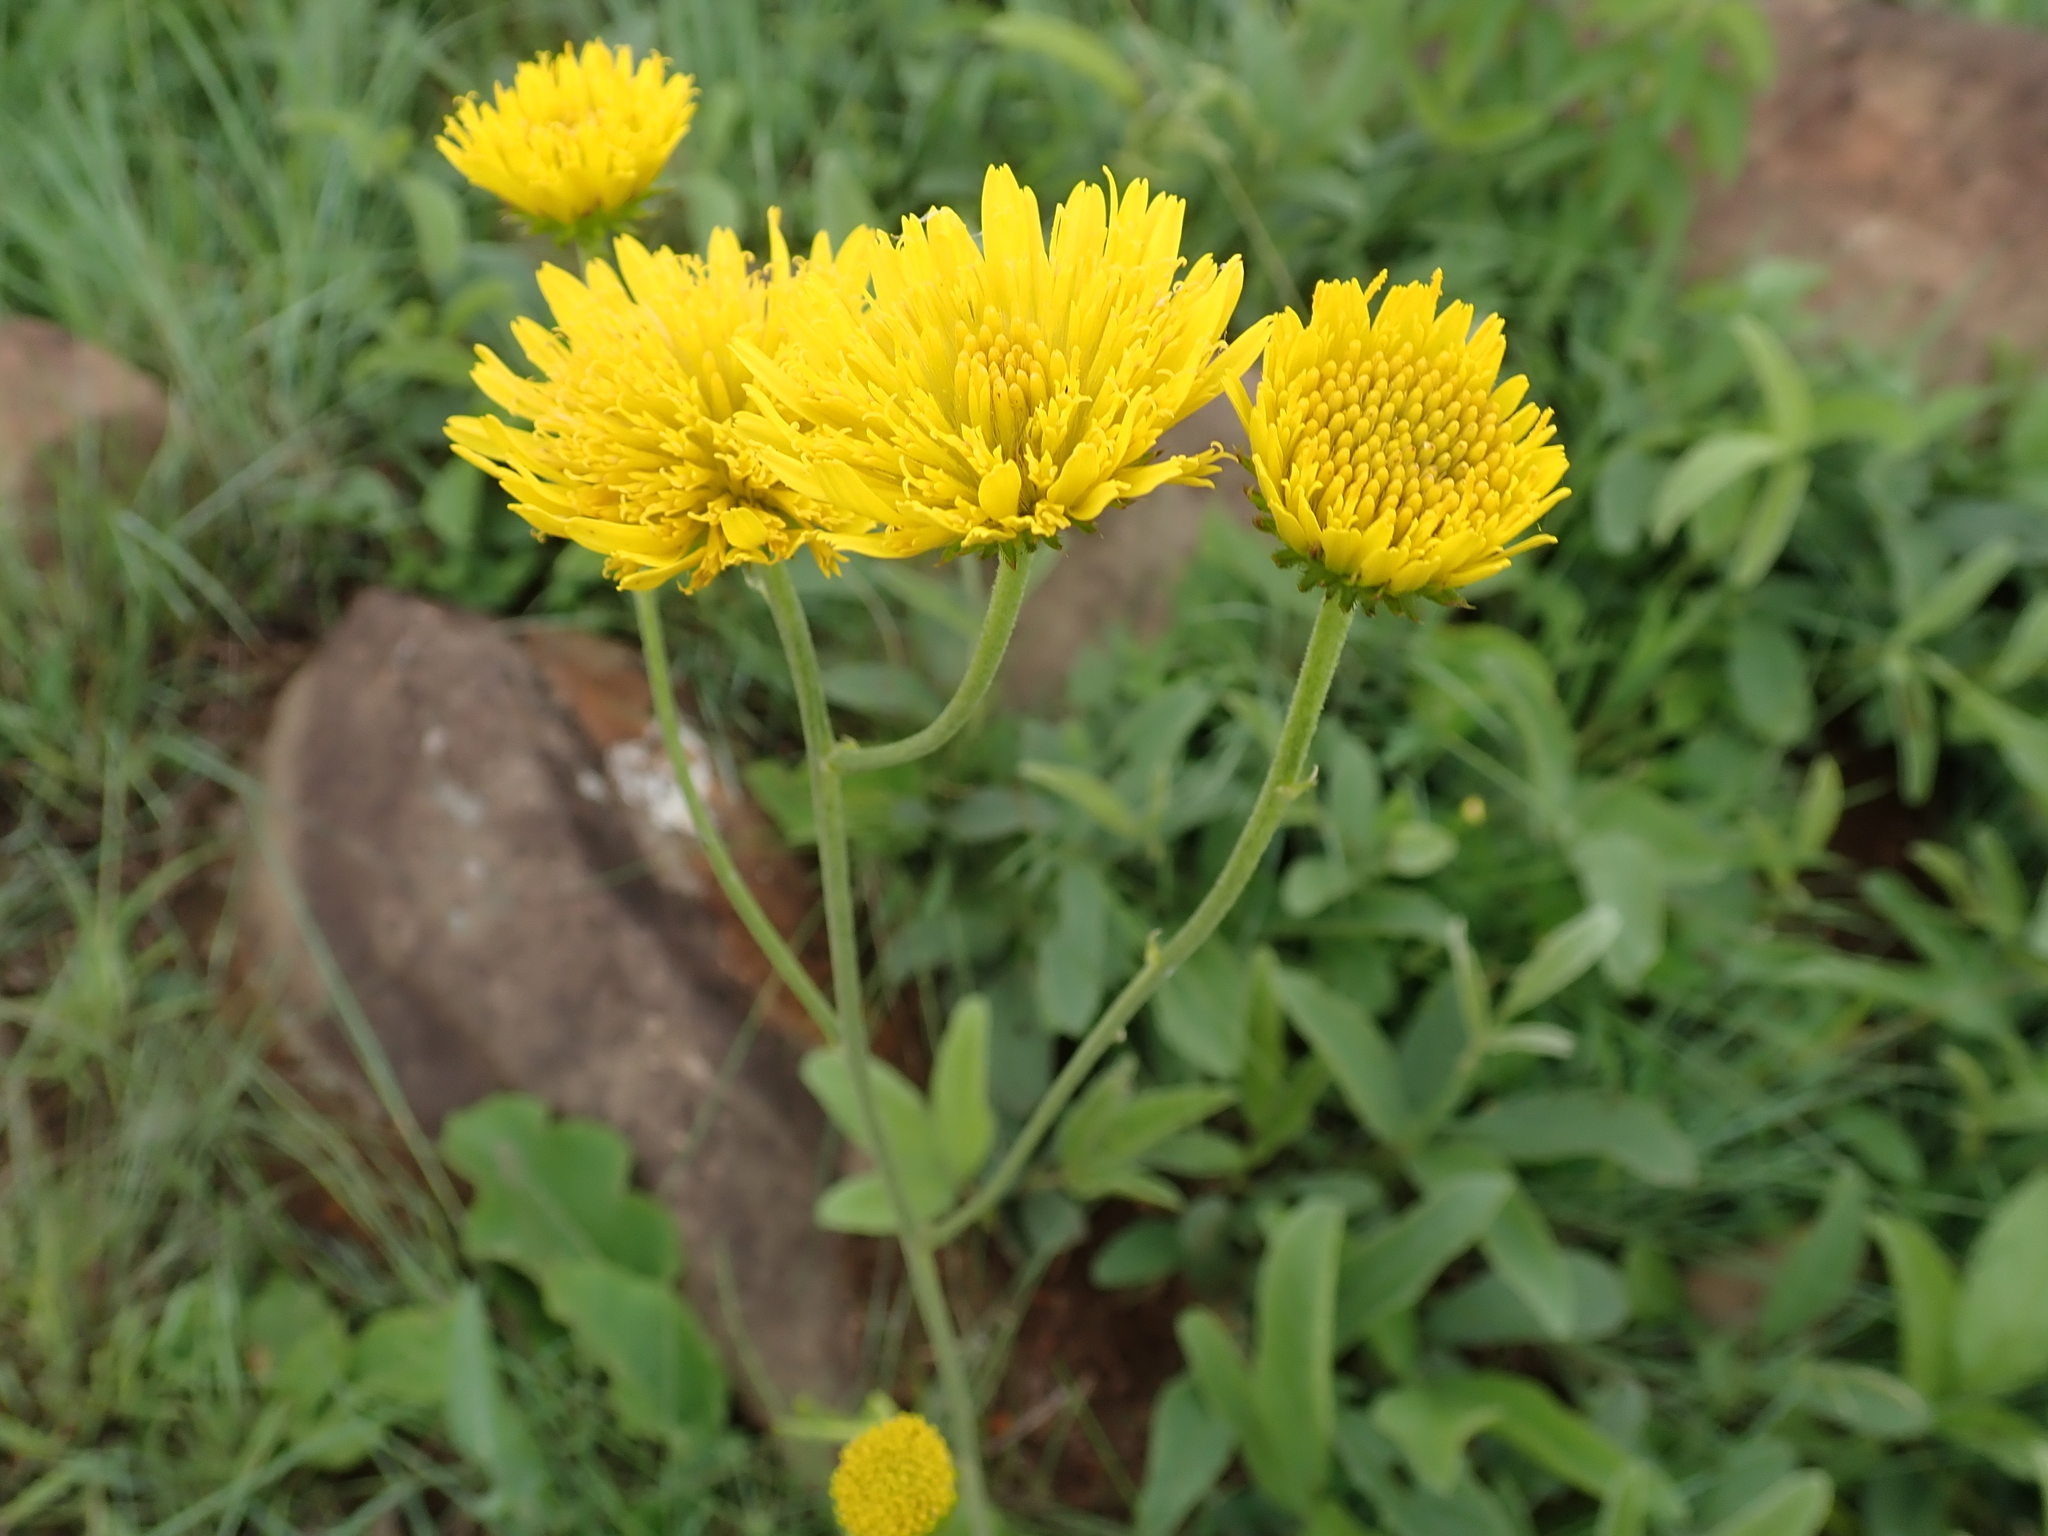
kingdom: Plantae
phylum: Tracheophyta
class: Magnoliopsida
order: Asterales
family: Asteraceae
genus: Berkheya
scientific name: Berkheya setifera
